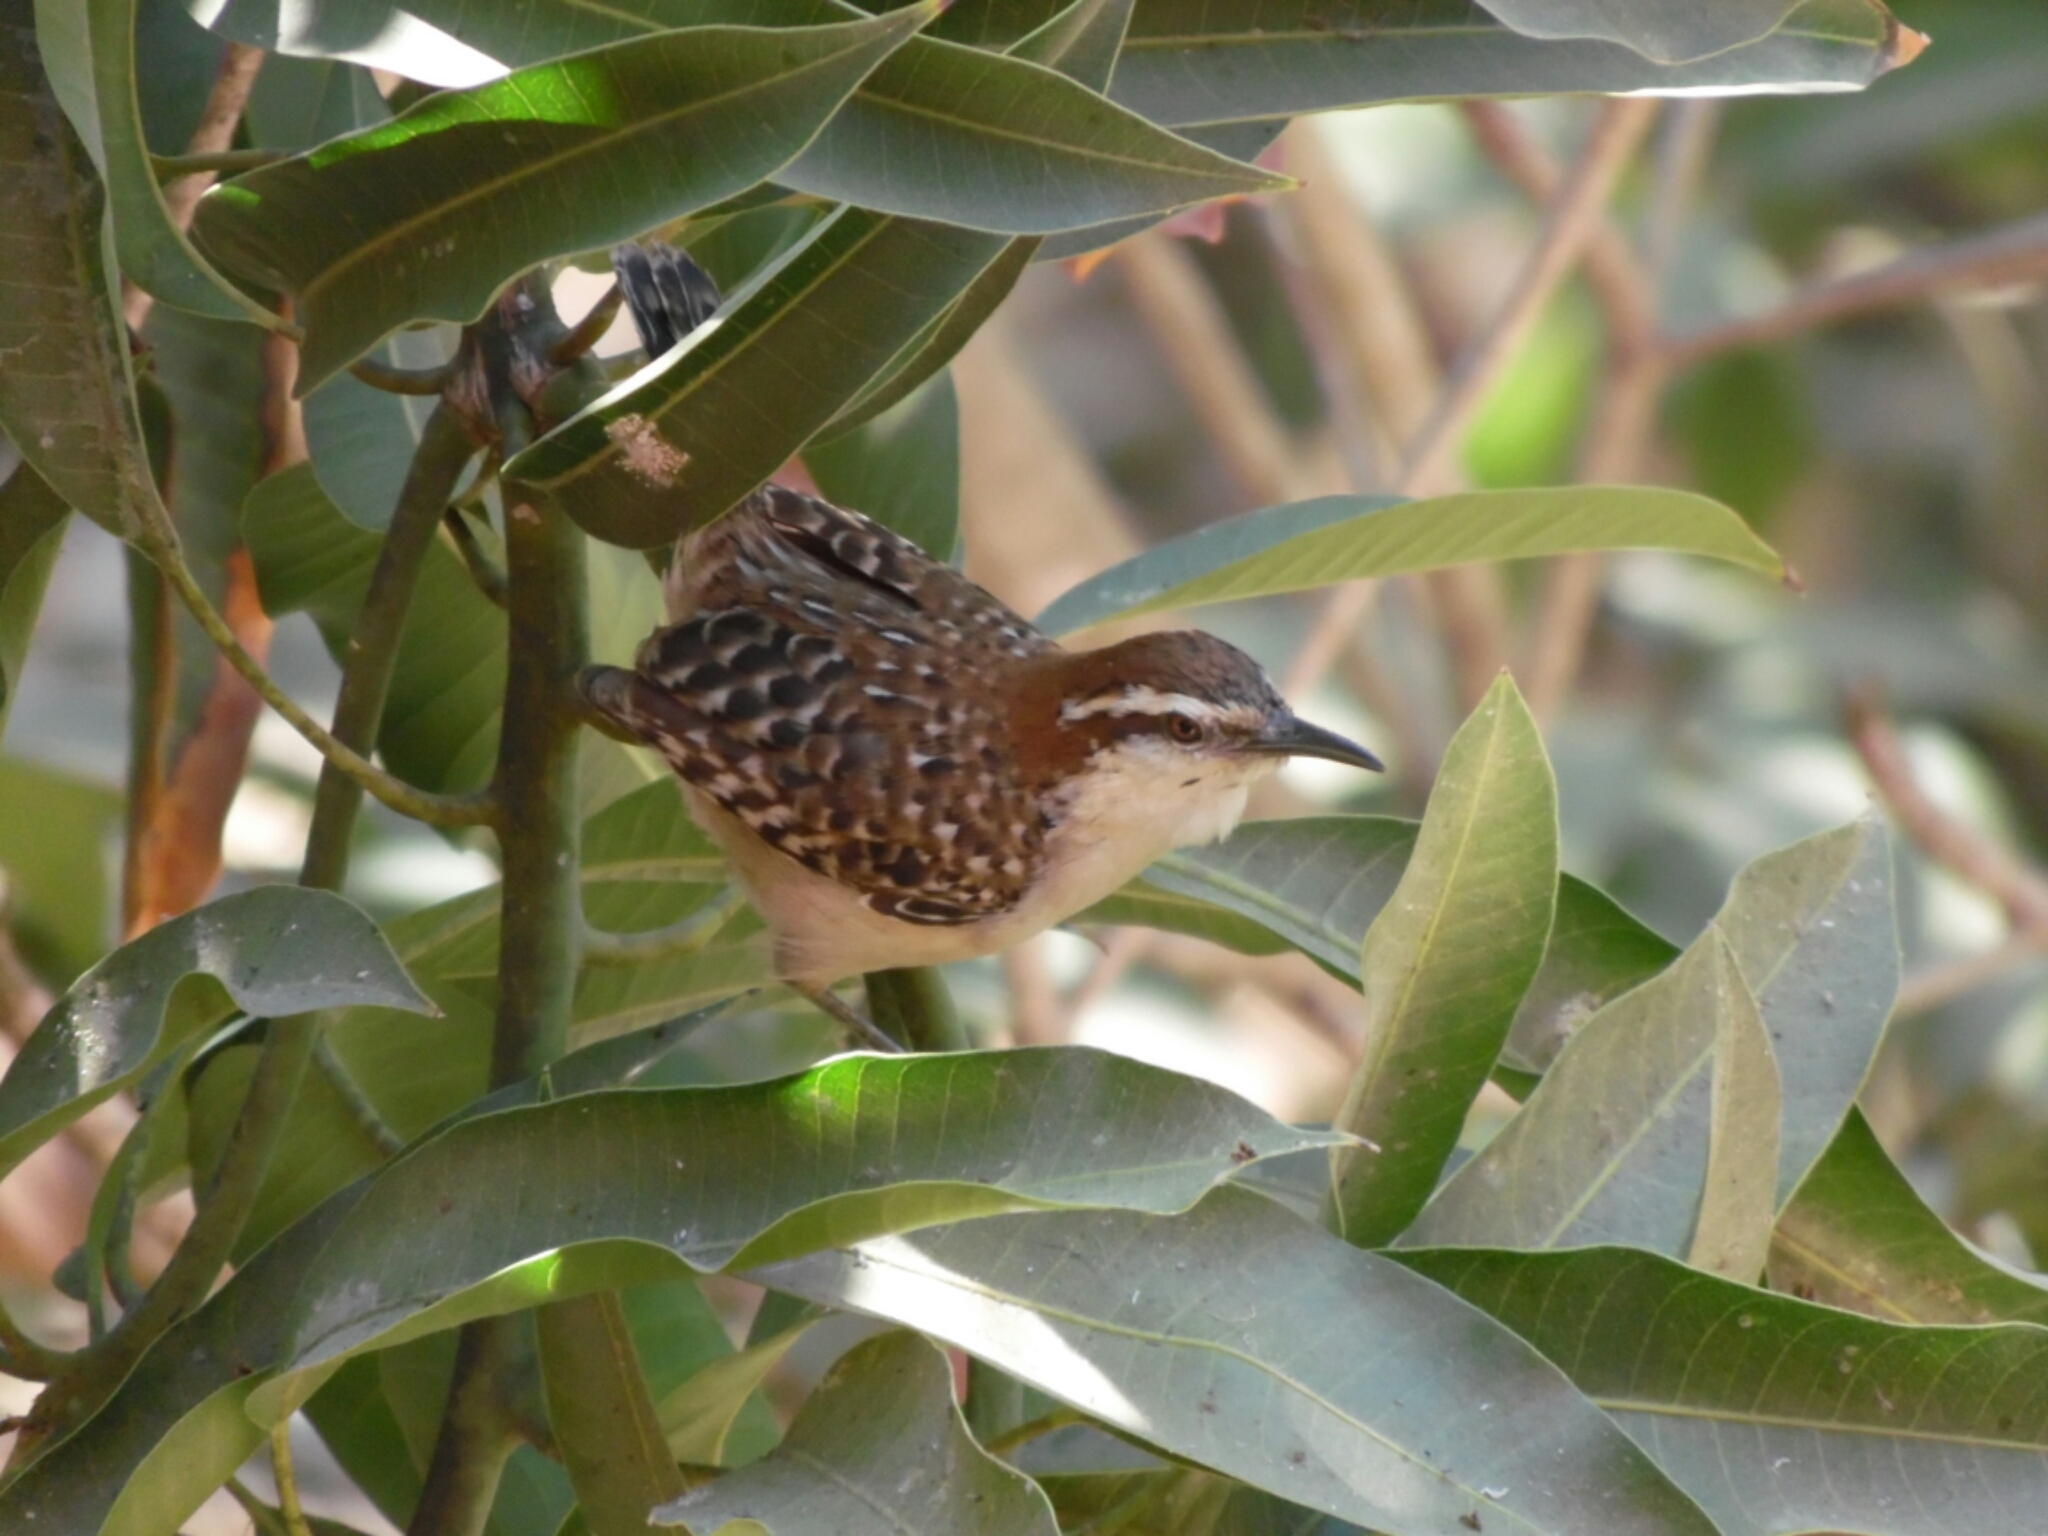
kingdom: Animalia
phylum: Chordata
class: Aves
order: Passeriformes
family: Troglodytidae
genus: Campylorhynchus
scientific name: Campylorhynchus rufinucha
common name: Rufous-naped wren
